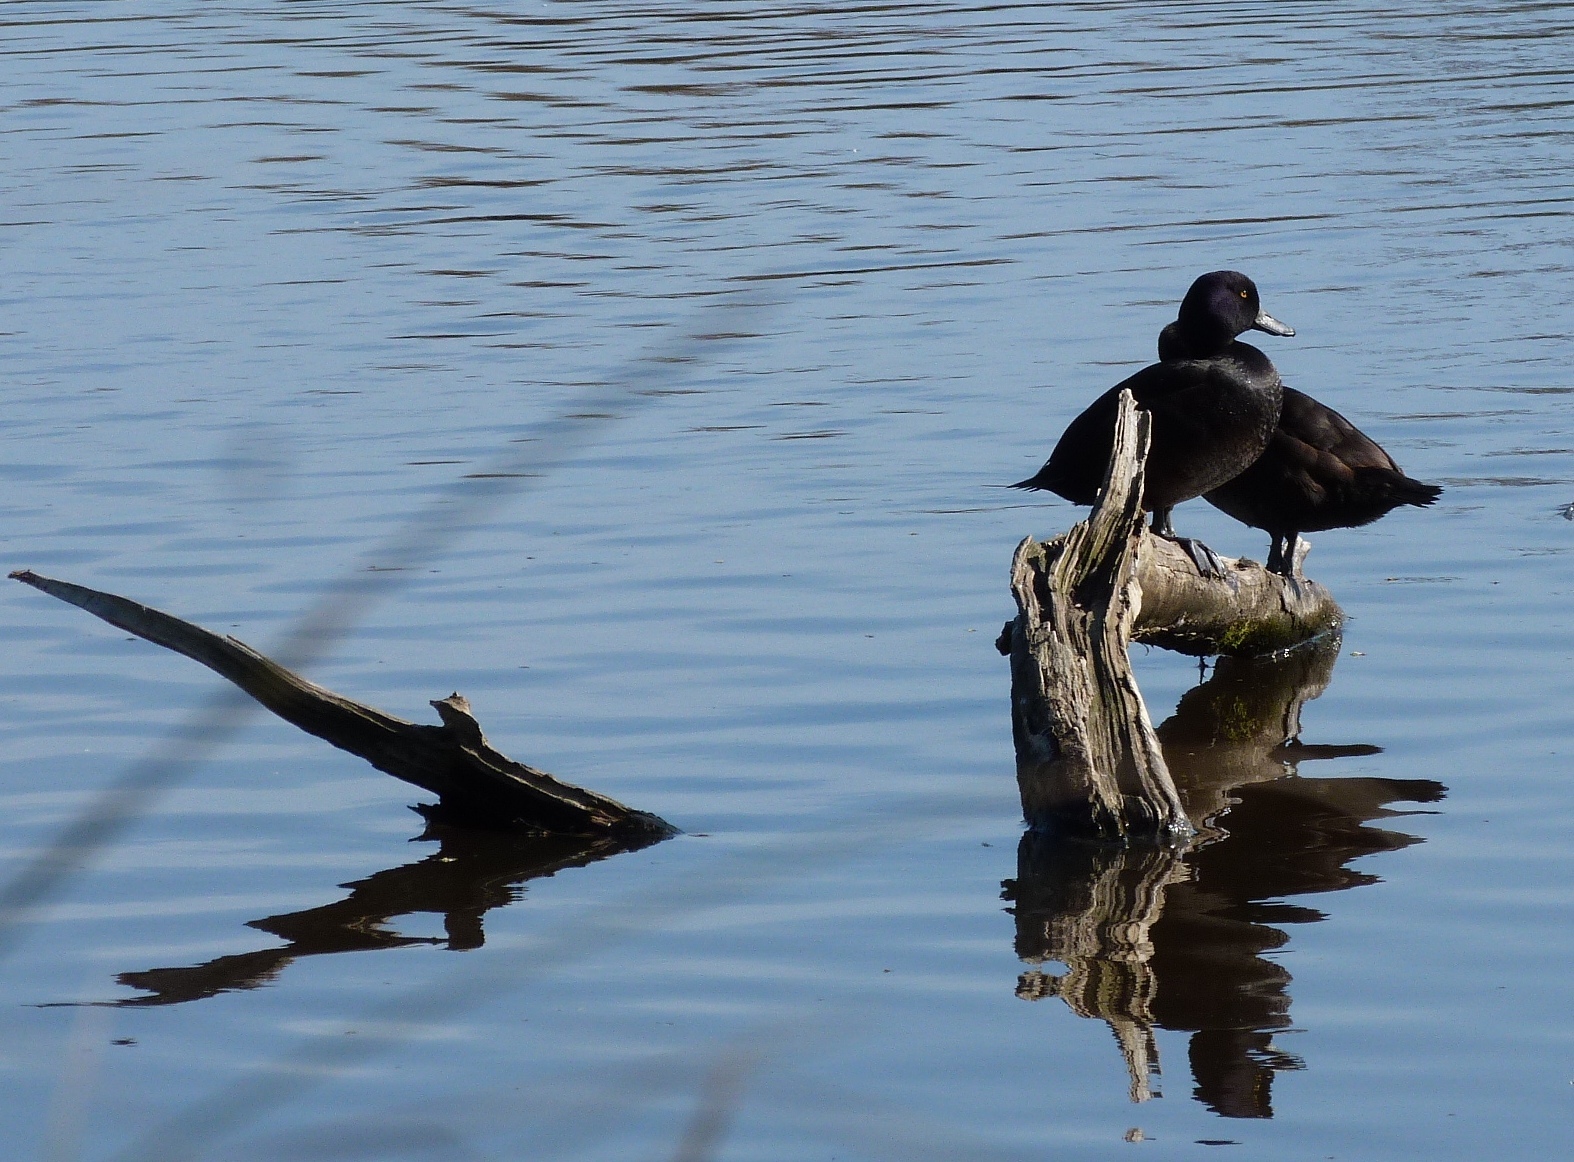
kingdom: Animalia
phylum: Chordata
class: Aves
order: Anseriformes
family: Anatidae
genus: Aythya
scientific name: Aythya novaeseelandiae
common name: New zealand scaup
